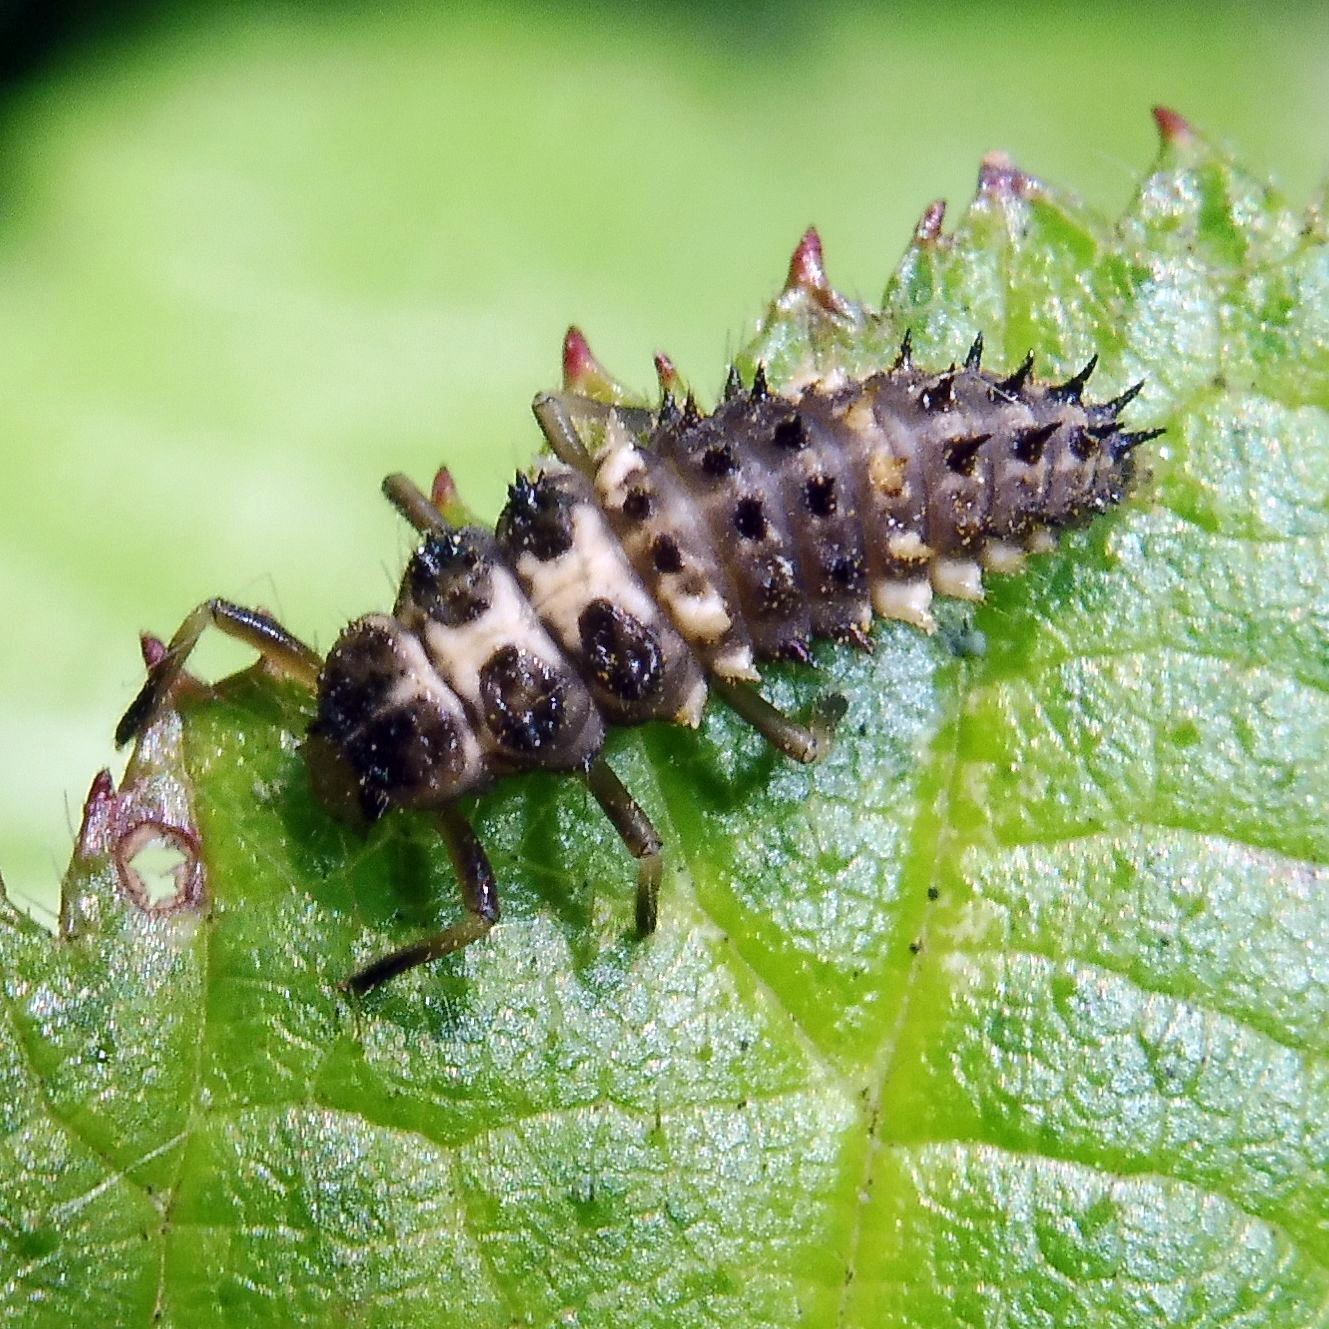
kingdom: Animalia
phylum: Arthropoda
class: Insecta
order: Coleoptera
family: Coccinellidae
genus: Calvia
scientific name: Calvia quatuordecimguttata
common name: Cream-spot ladybird
